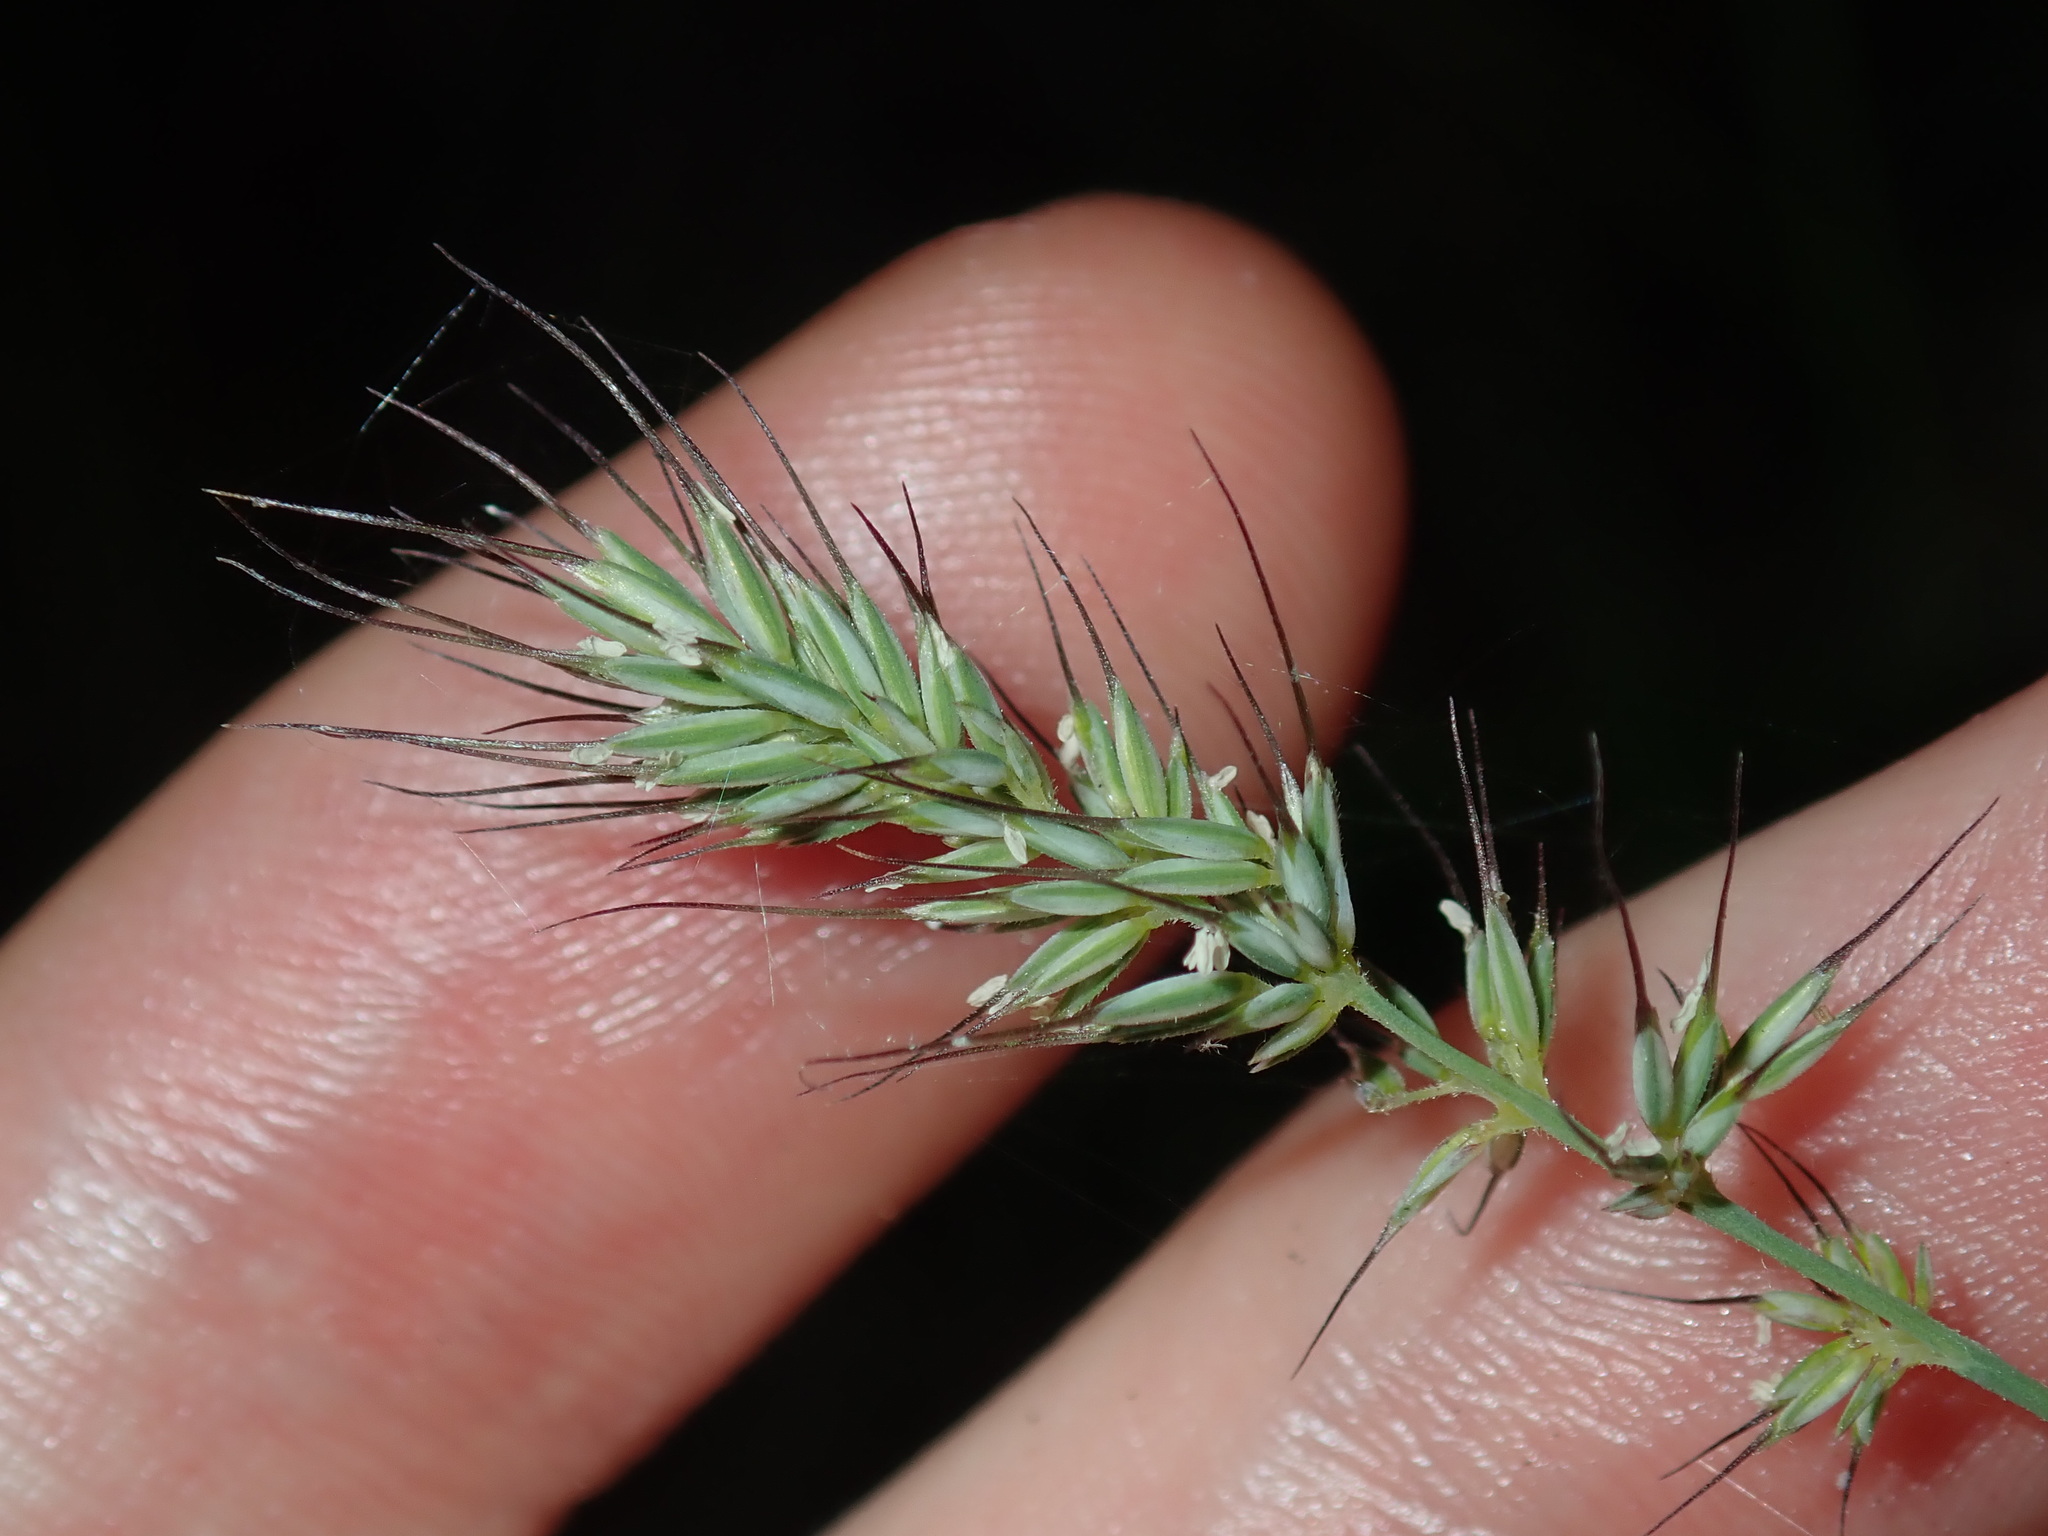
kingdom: Plantae
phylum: Tracheophyta
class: Liliopsida
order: Poales
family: Poaceae
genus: Echinopogon
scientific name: Echinopogon caespitosus
